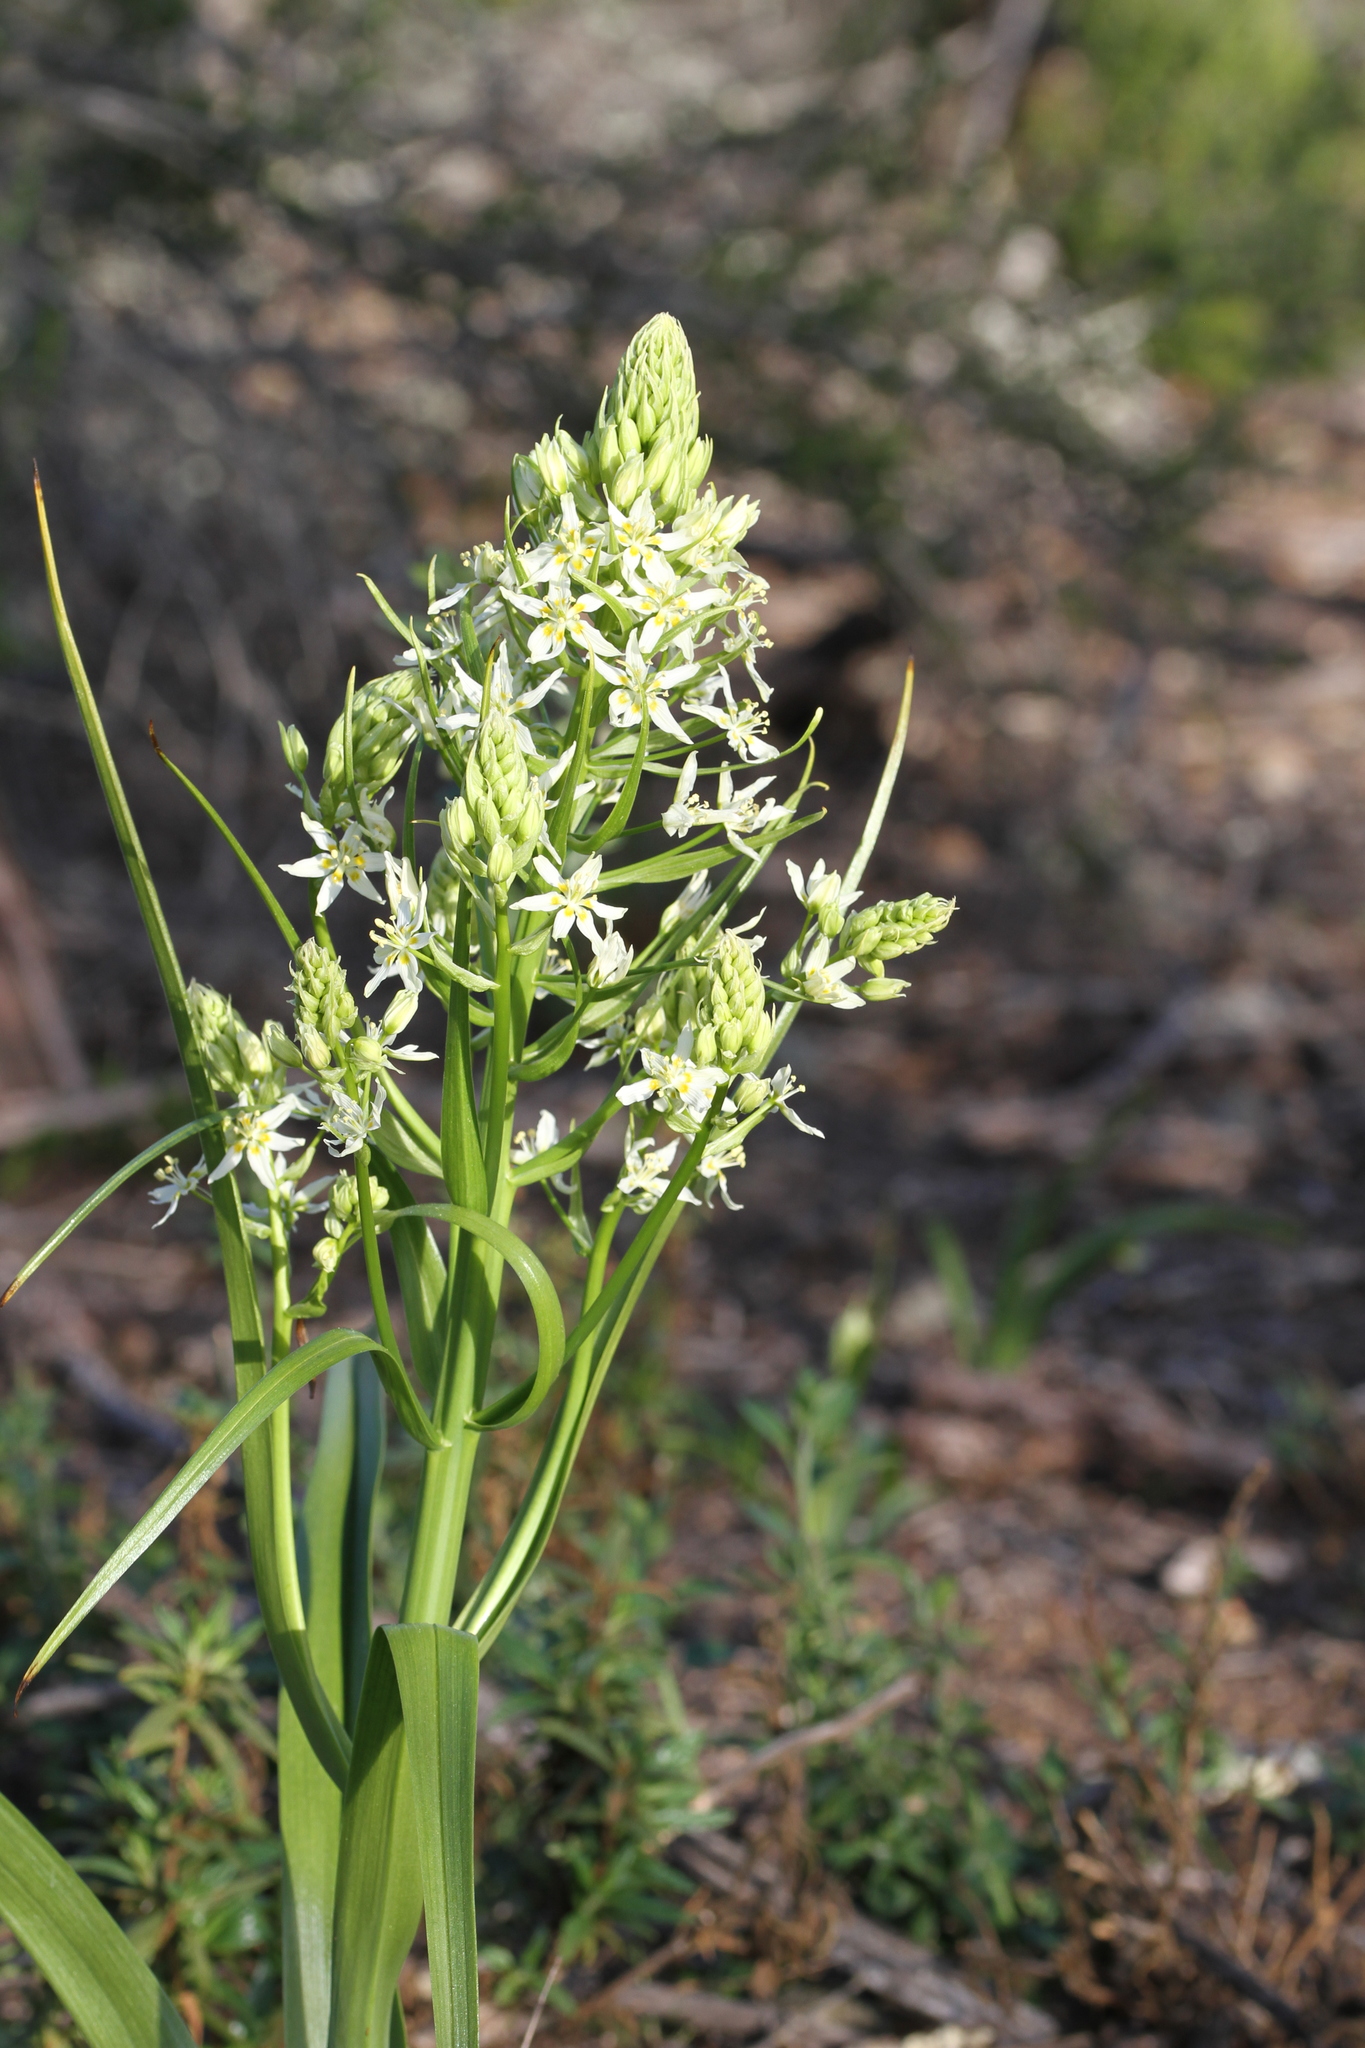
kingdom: Plantae
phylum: Tracheophyta
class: Liliopsida
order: Liliales
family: Melanthiaceae
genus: Toxicoscordion
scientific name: Toxicoscordion fremontii
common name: Fremont's death camas
